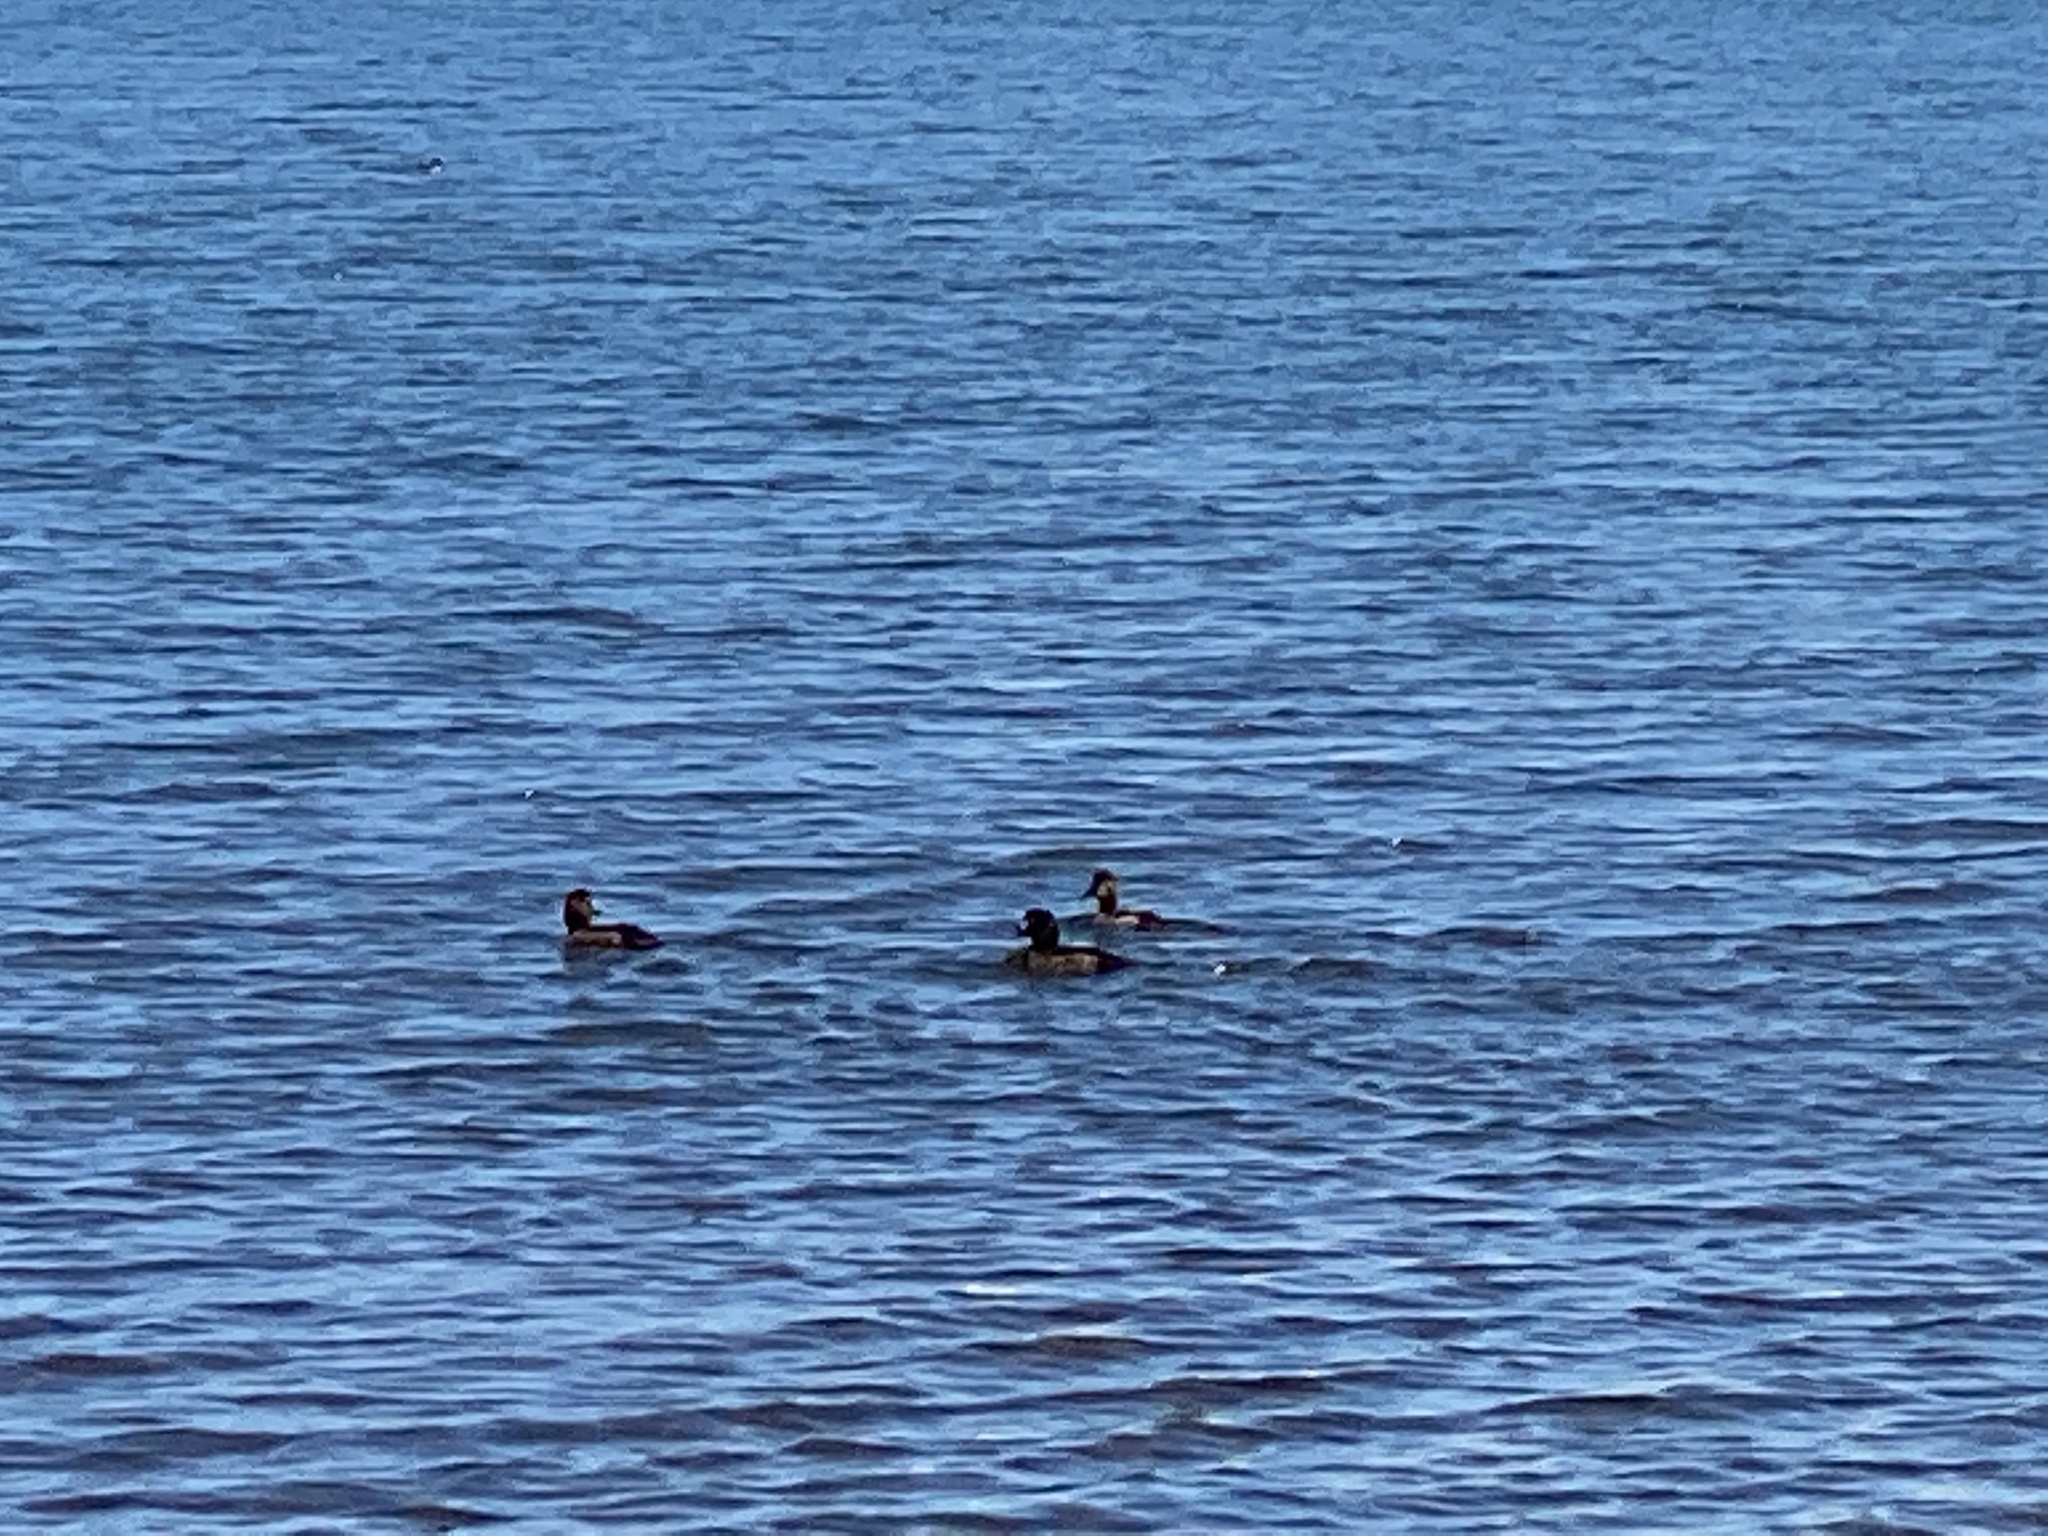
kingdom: Animalia
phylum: Chordata
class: Aves
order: Anseriformes
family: Anatidae
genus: Aythya
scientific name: Aythya marila
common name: Greater scaup
